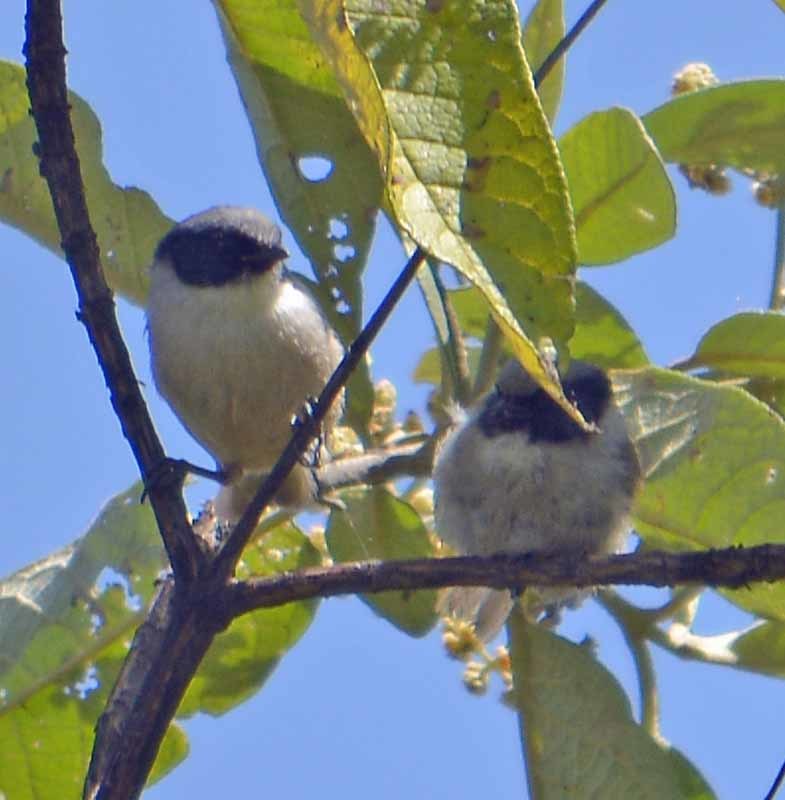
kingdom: Animalia
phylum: Chordata
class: Aves
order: Passeriformes
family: Aegithalidae
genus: Psaltriparus
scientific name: Psaltriparus minimus
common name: American bushtit
